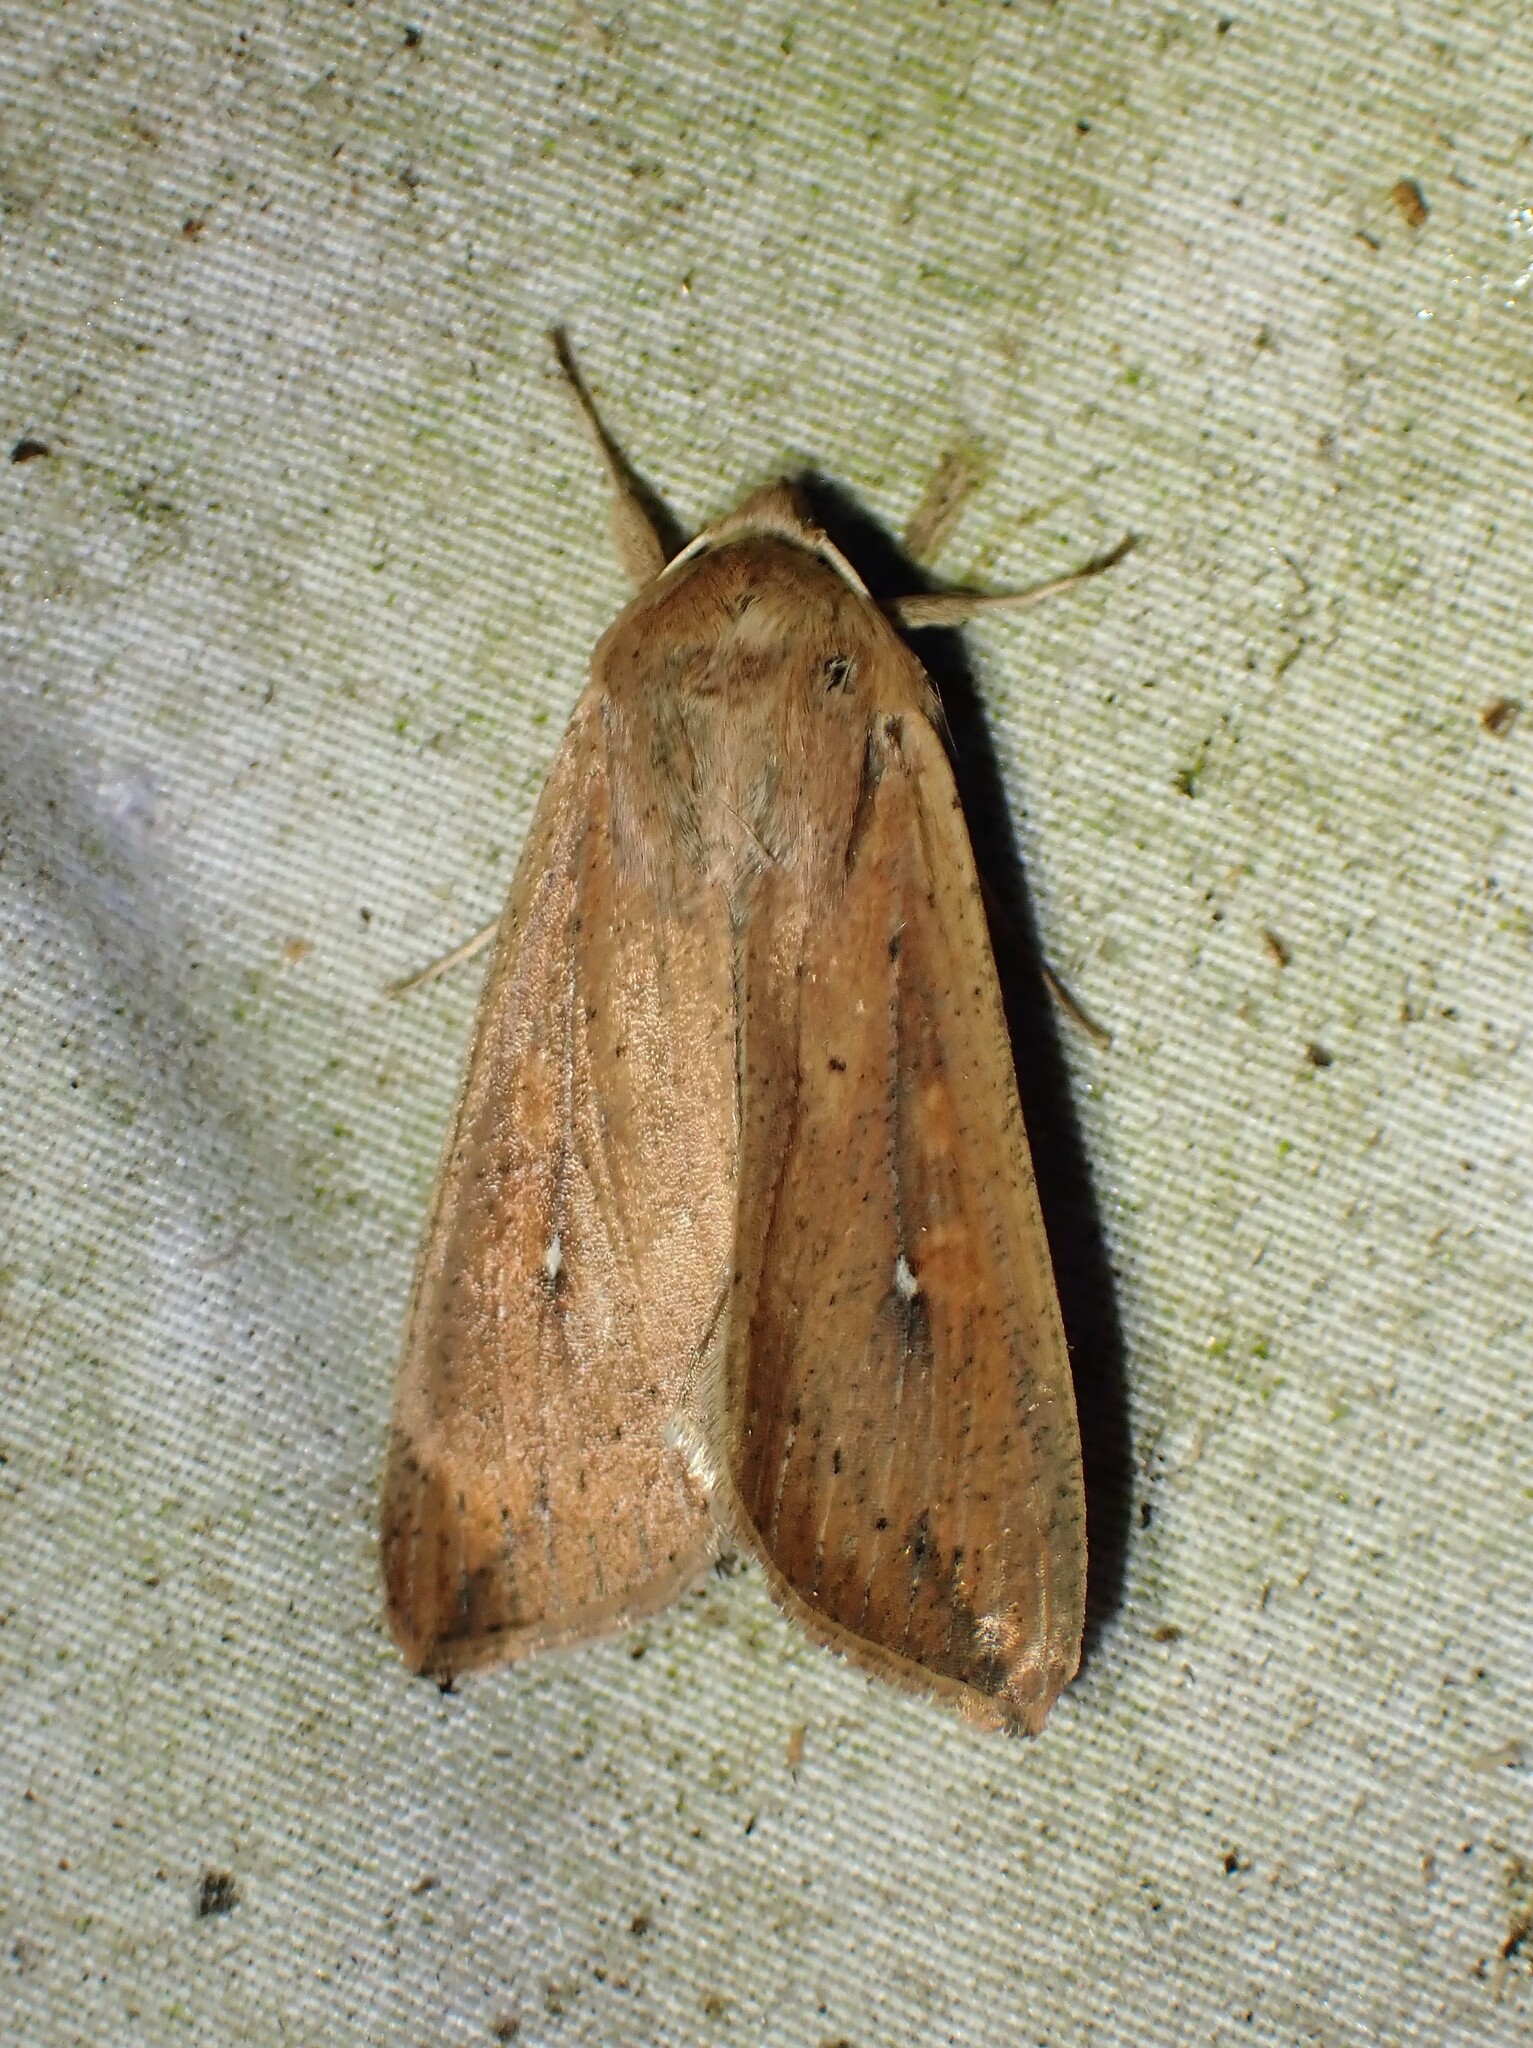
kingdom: Animalia
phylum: Arthropoda
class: Insecta
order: Lepidoptera
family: Noctuidae
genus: Mythimna
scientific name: Mythimna unipuncta
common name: White-speck
